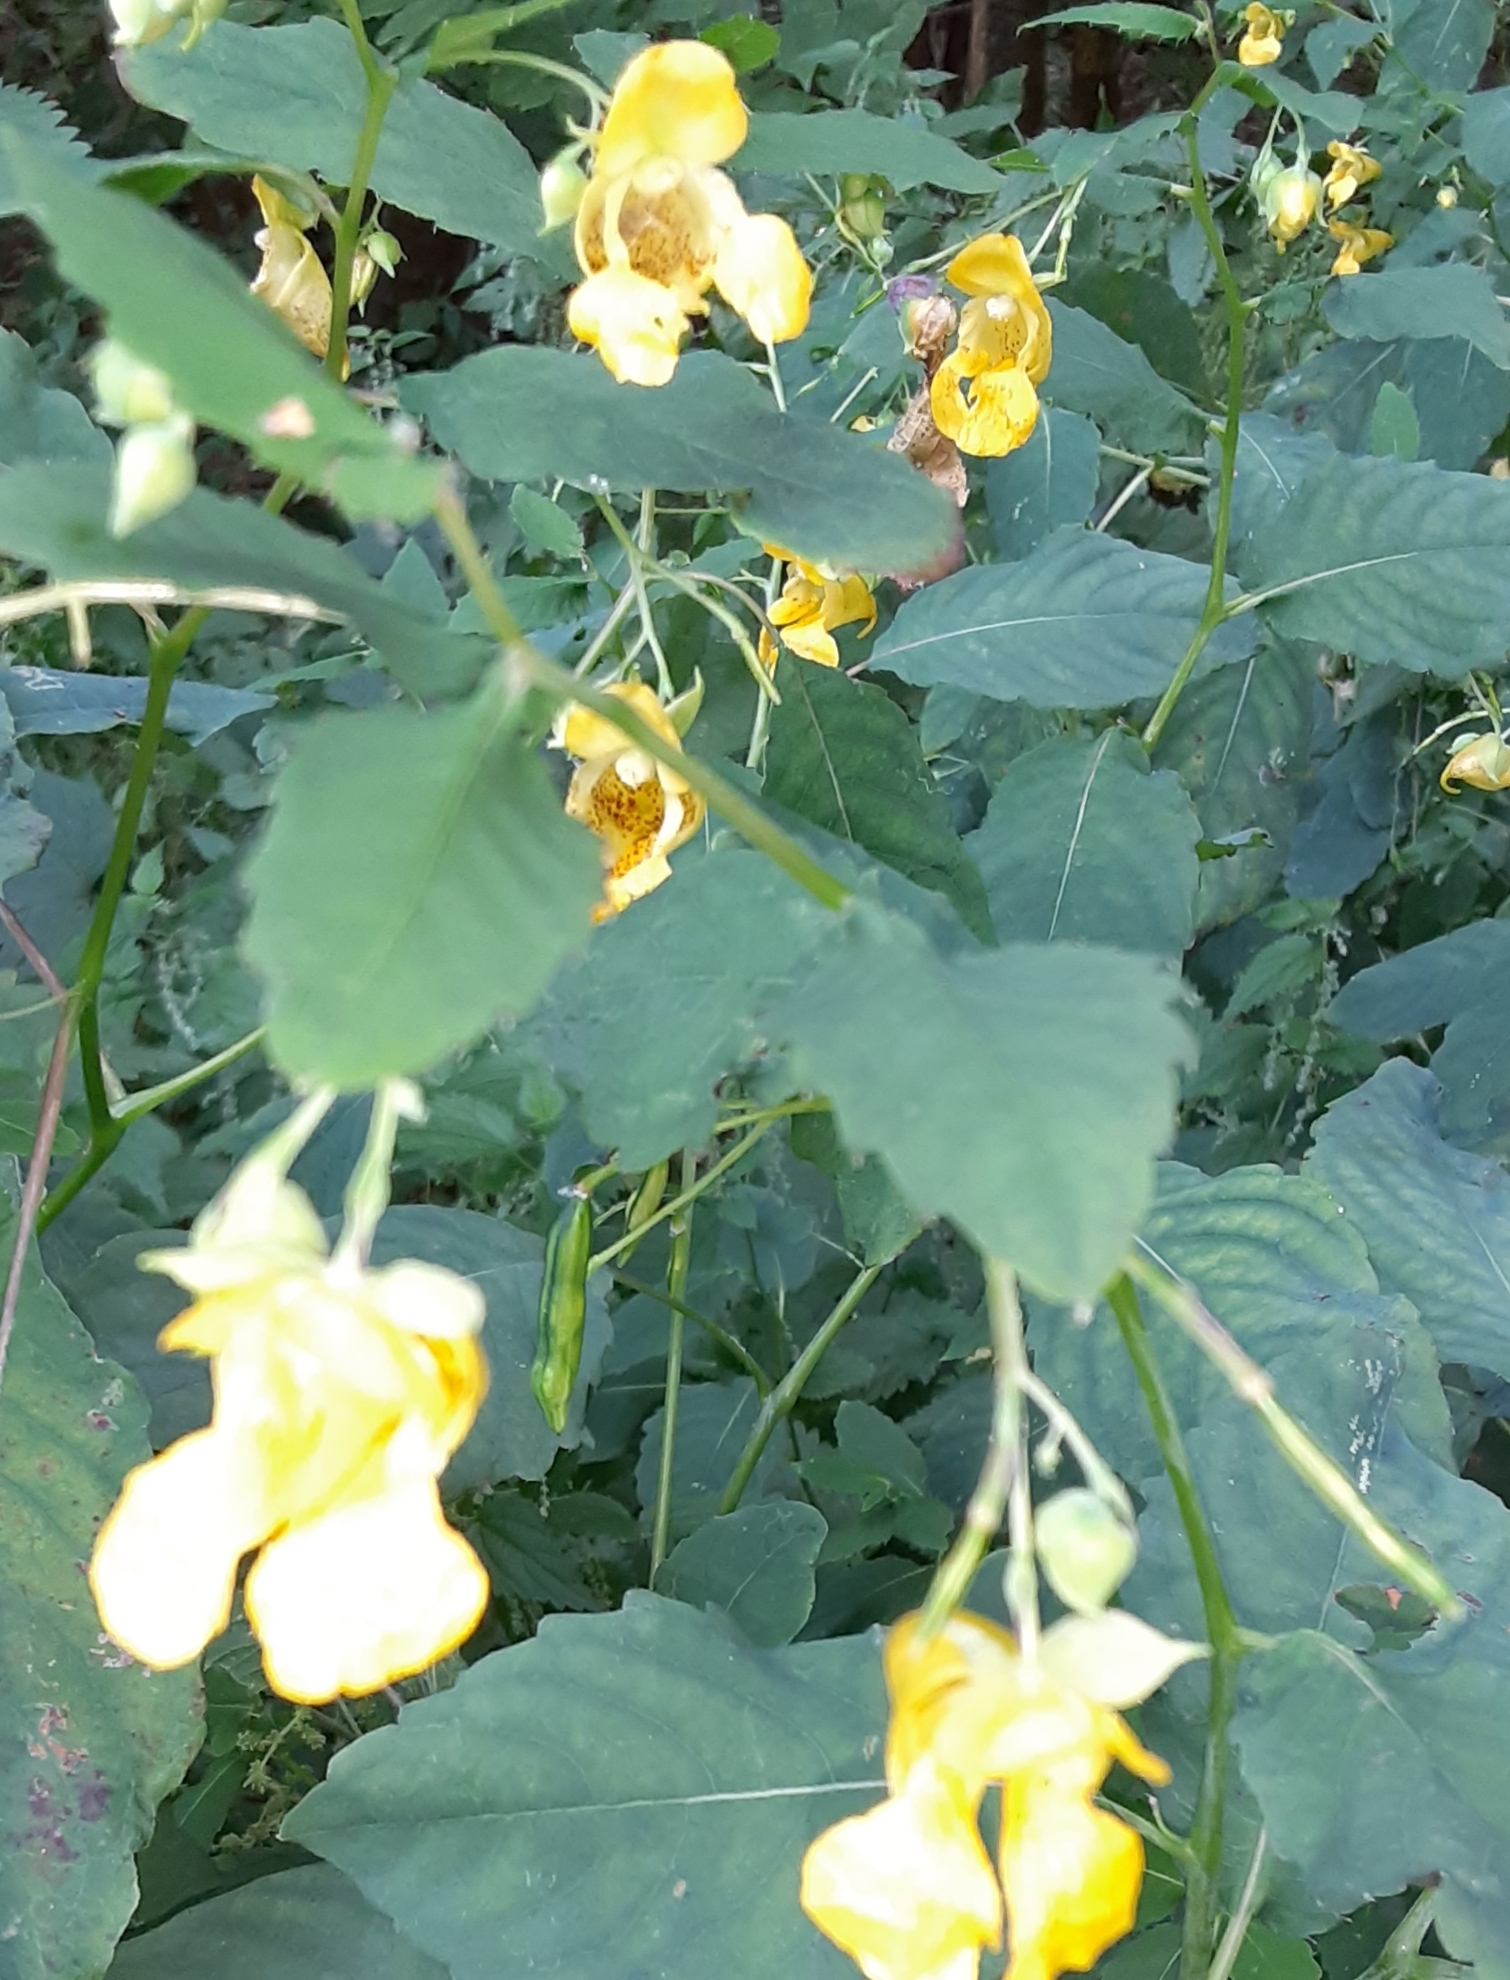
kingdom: Plantae
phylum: Tracheophyta
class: Magnoliopsida
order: Ericales
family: Balsaminaceae
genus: Impatiens
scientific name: Impatiens pallida
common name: Pale snapweed
